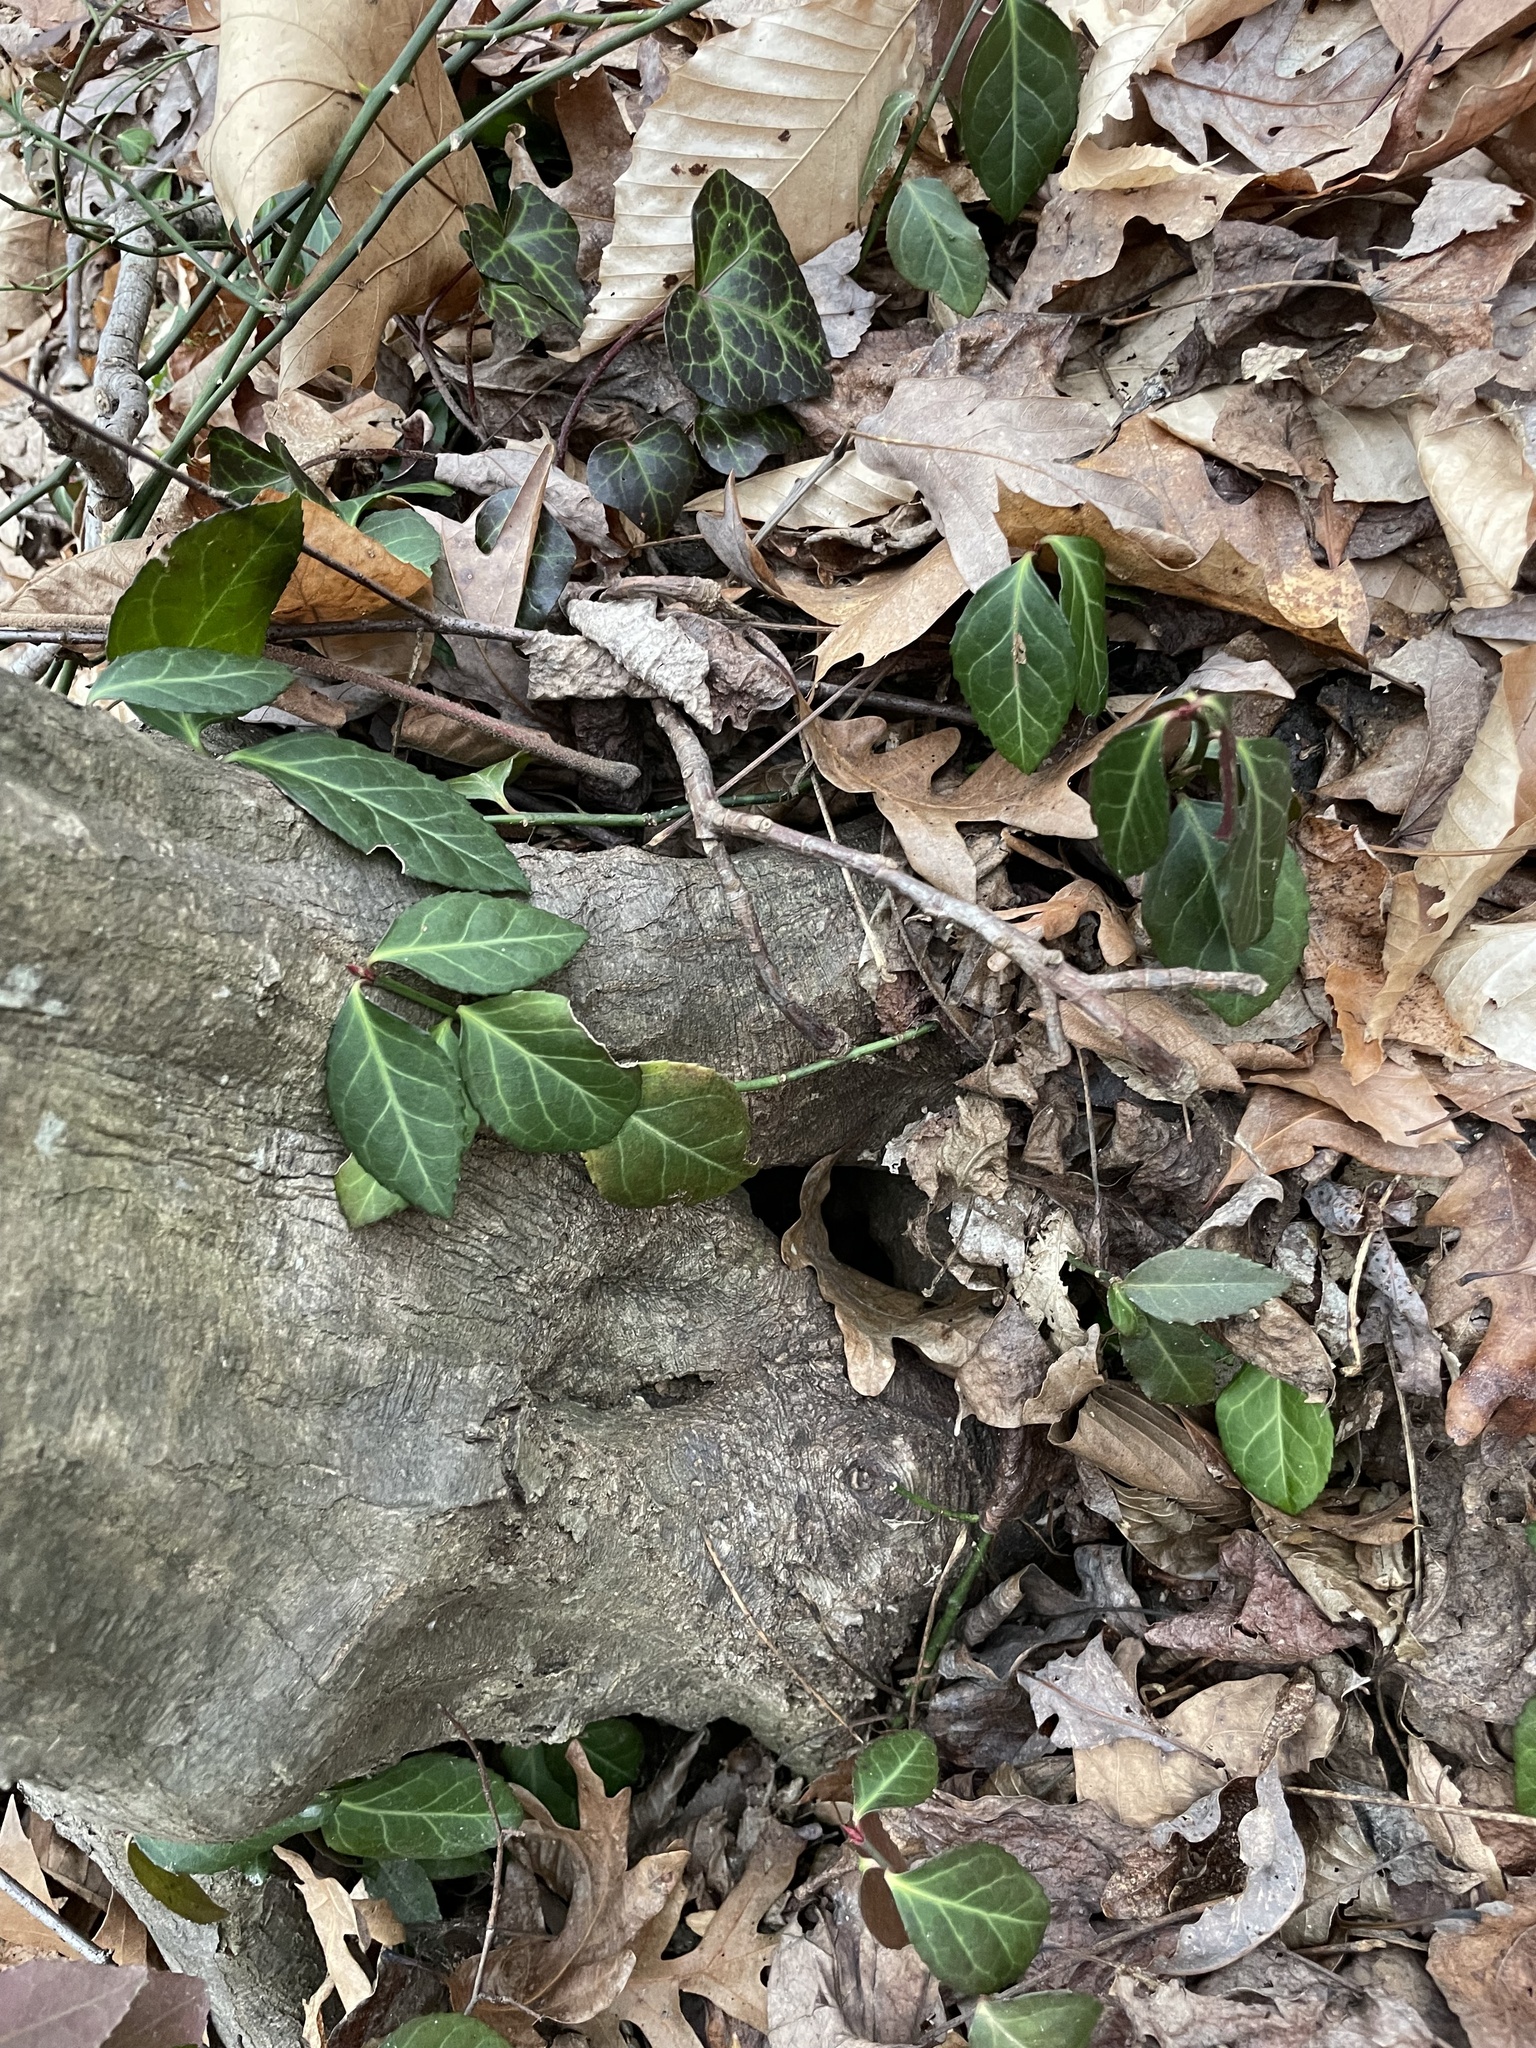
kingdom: Plantae
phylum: Tracheophyta
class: Magnoliopsida
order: Celastrales
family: Celastraceae
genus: Euonymus
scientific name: Euonymus fortunei
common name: Climbing euonymus
